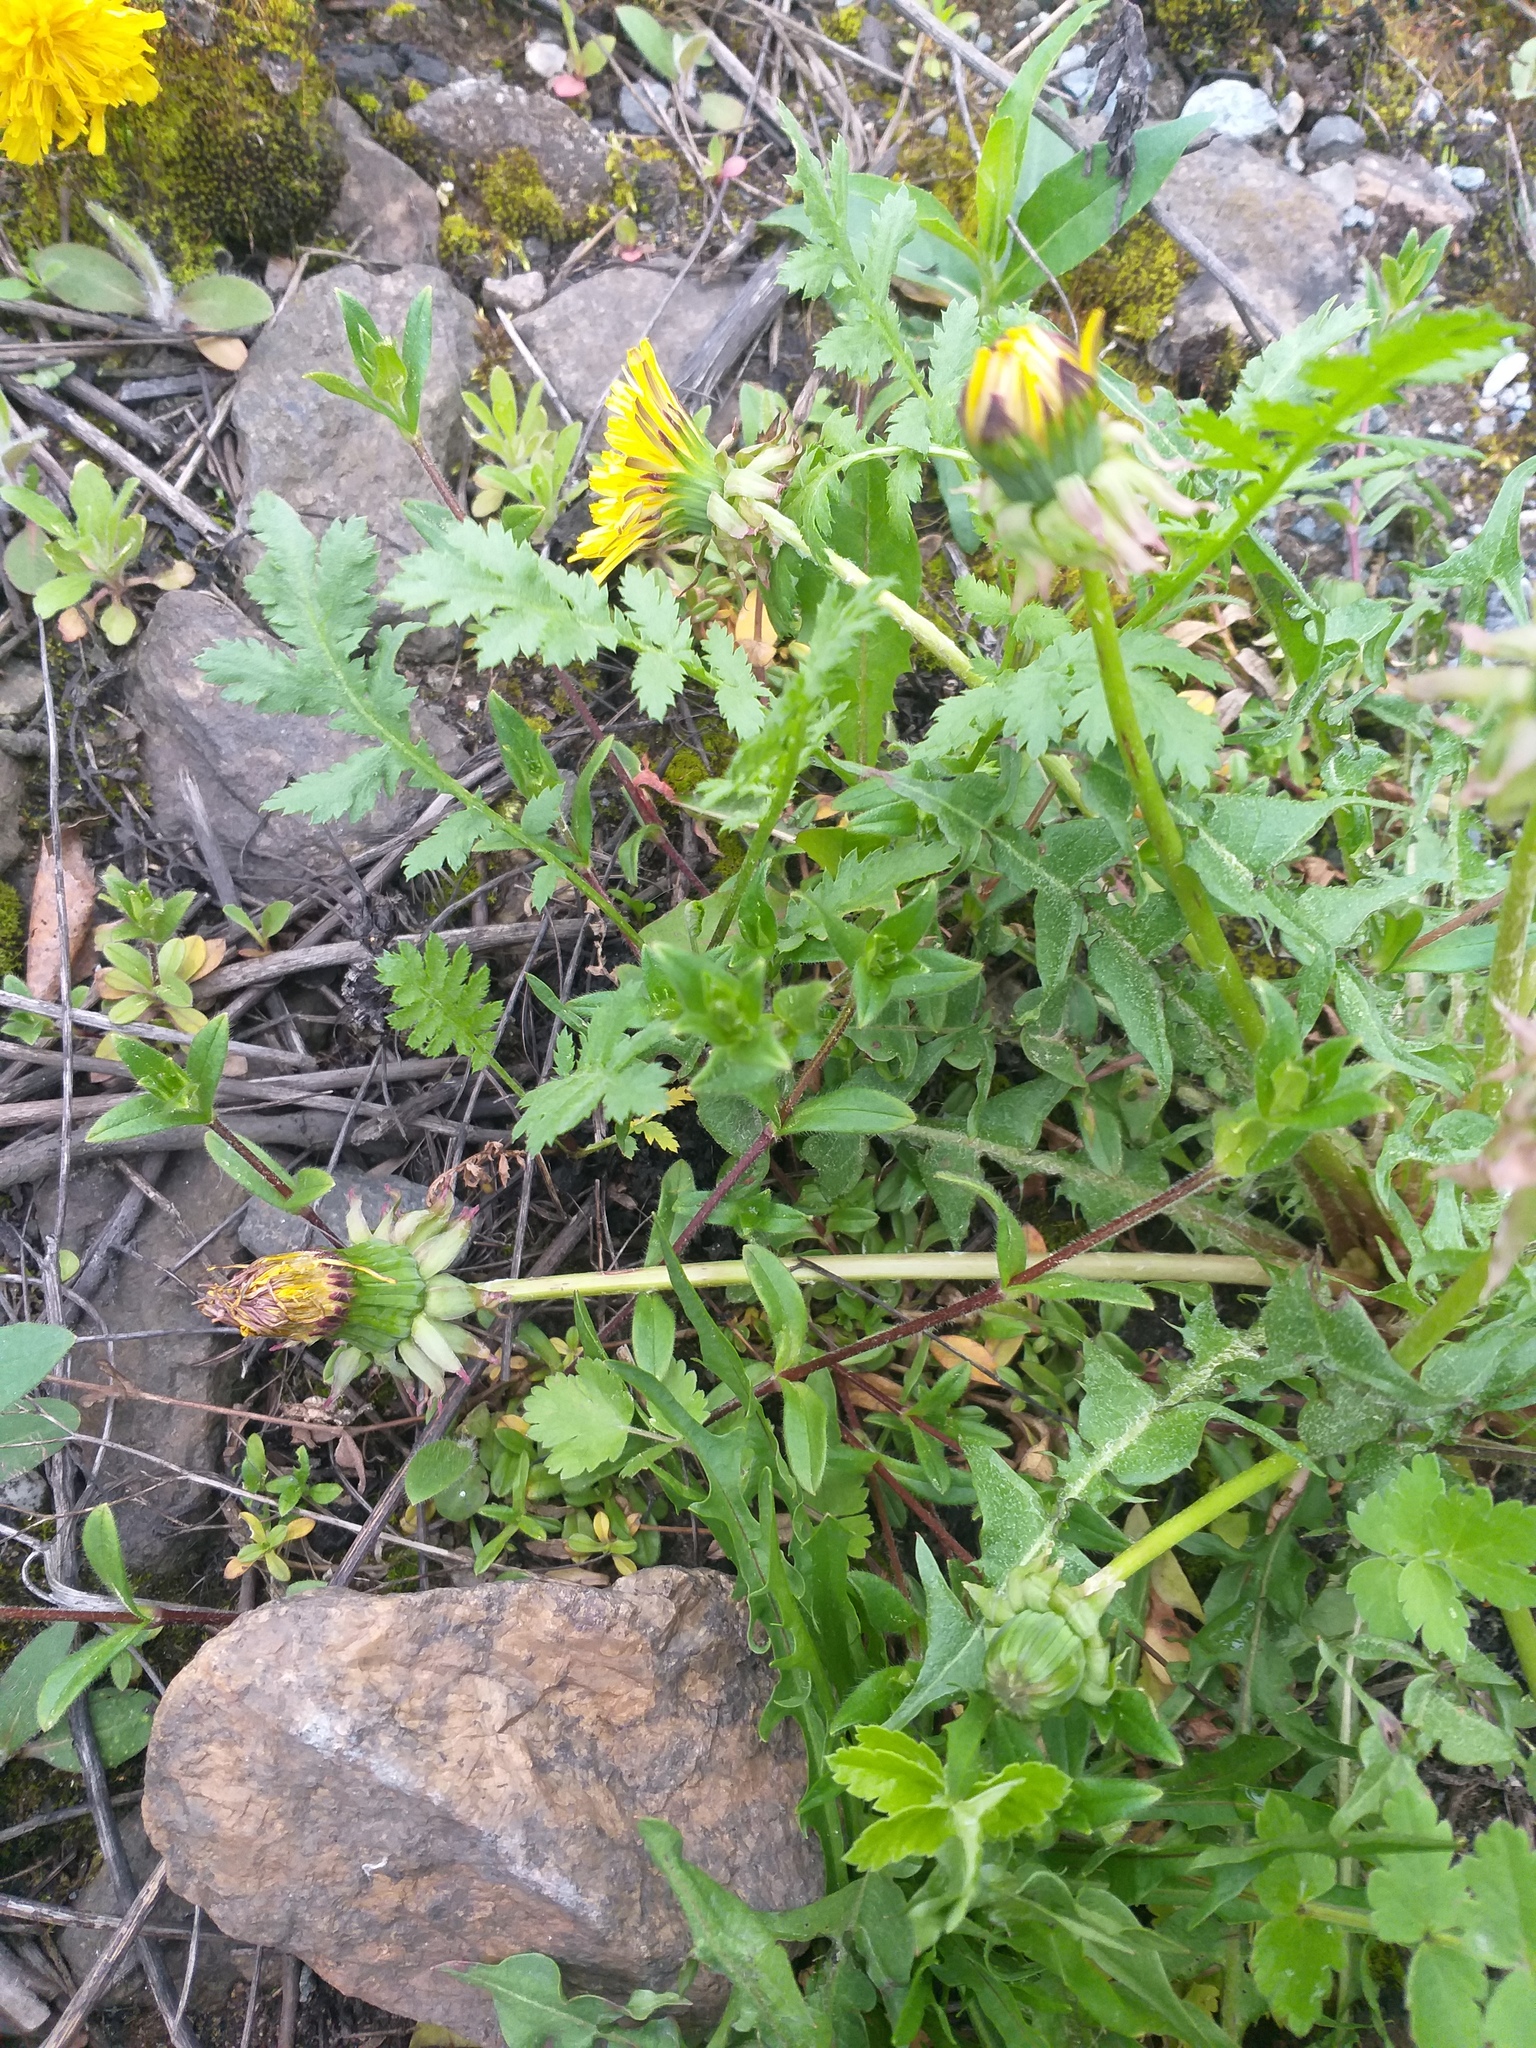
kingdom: Plantae
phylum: Tracheophyta
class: Magnoliopsida
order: Caryophyllales
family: Caryophyllaceae
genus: Cerastium
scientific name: Cerastium holosteoides
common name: Big chickweed
